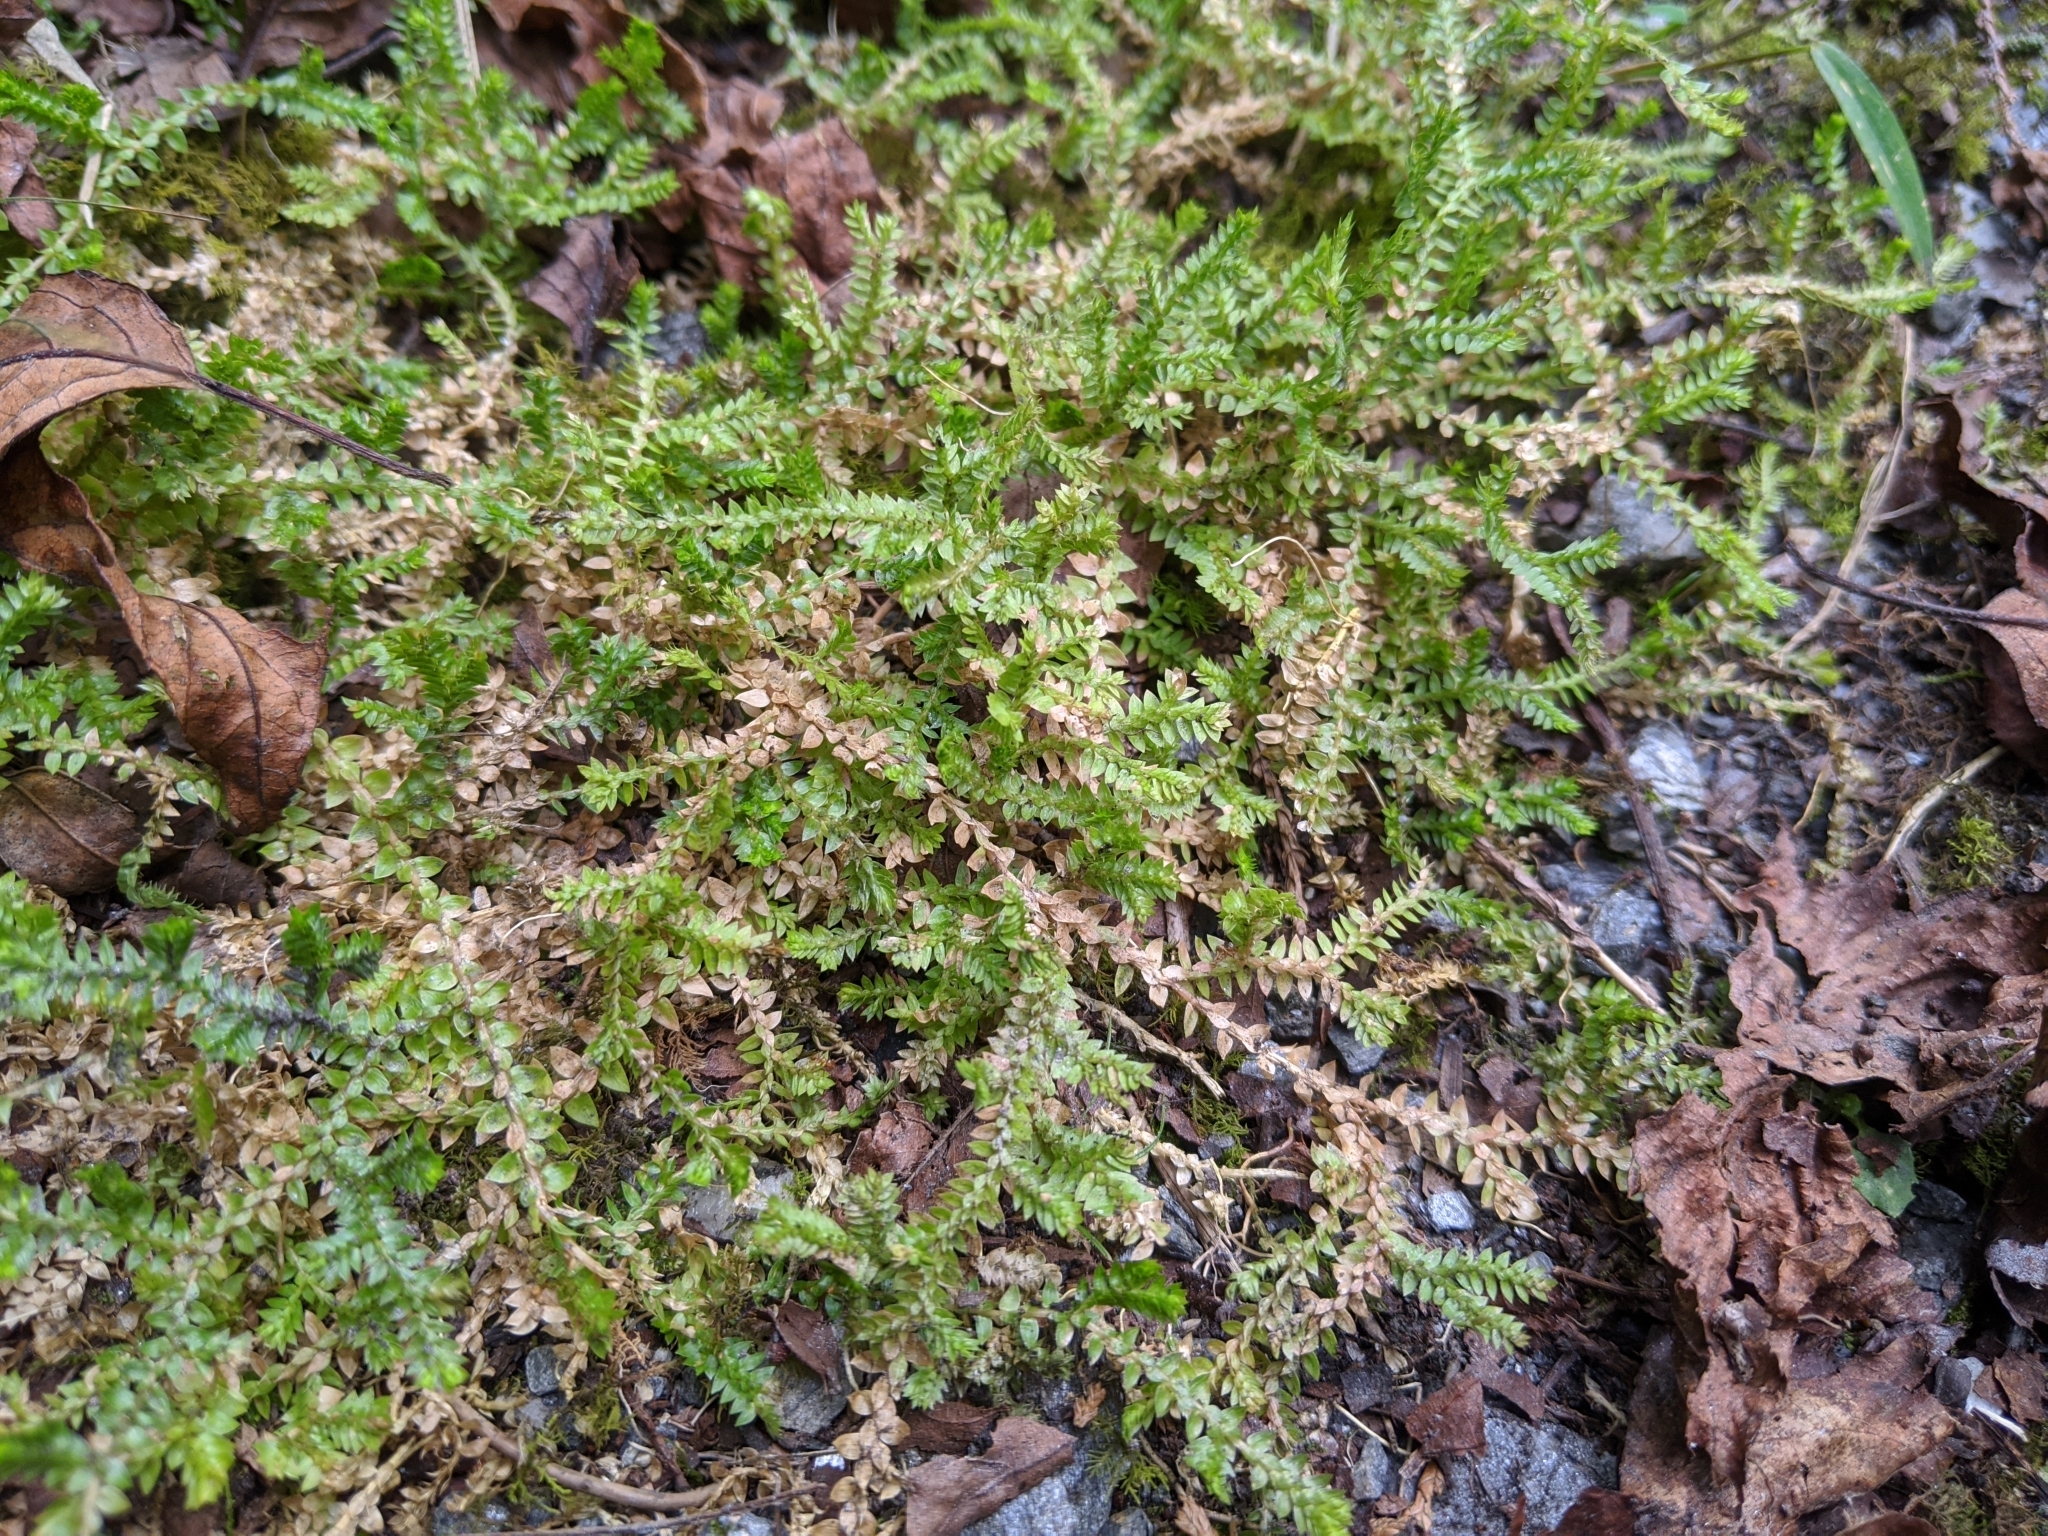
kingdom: Plantae
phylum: Tracheophyta
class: Lycopodiopsida
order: Selaginellales
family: Selaginellaceae
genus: Selaginella
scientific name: Selaginella remotifolia
